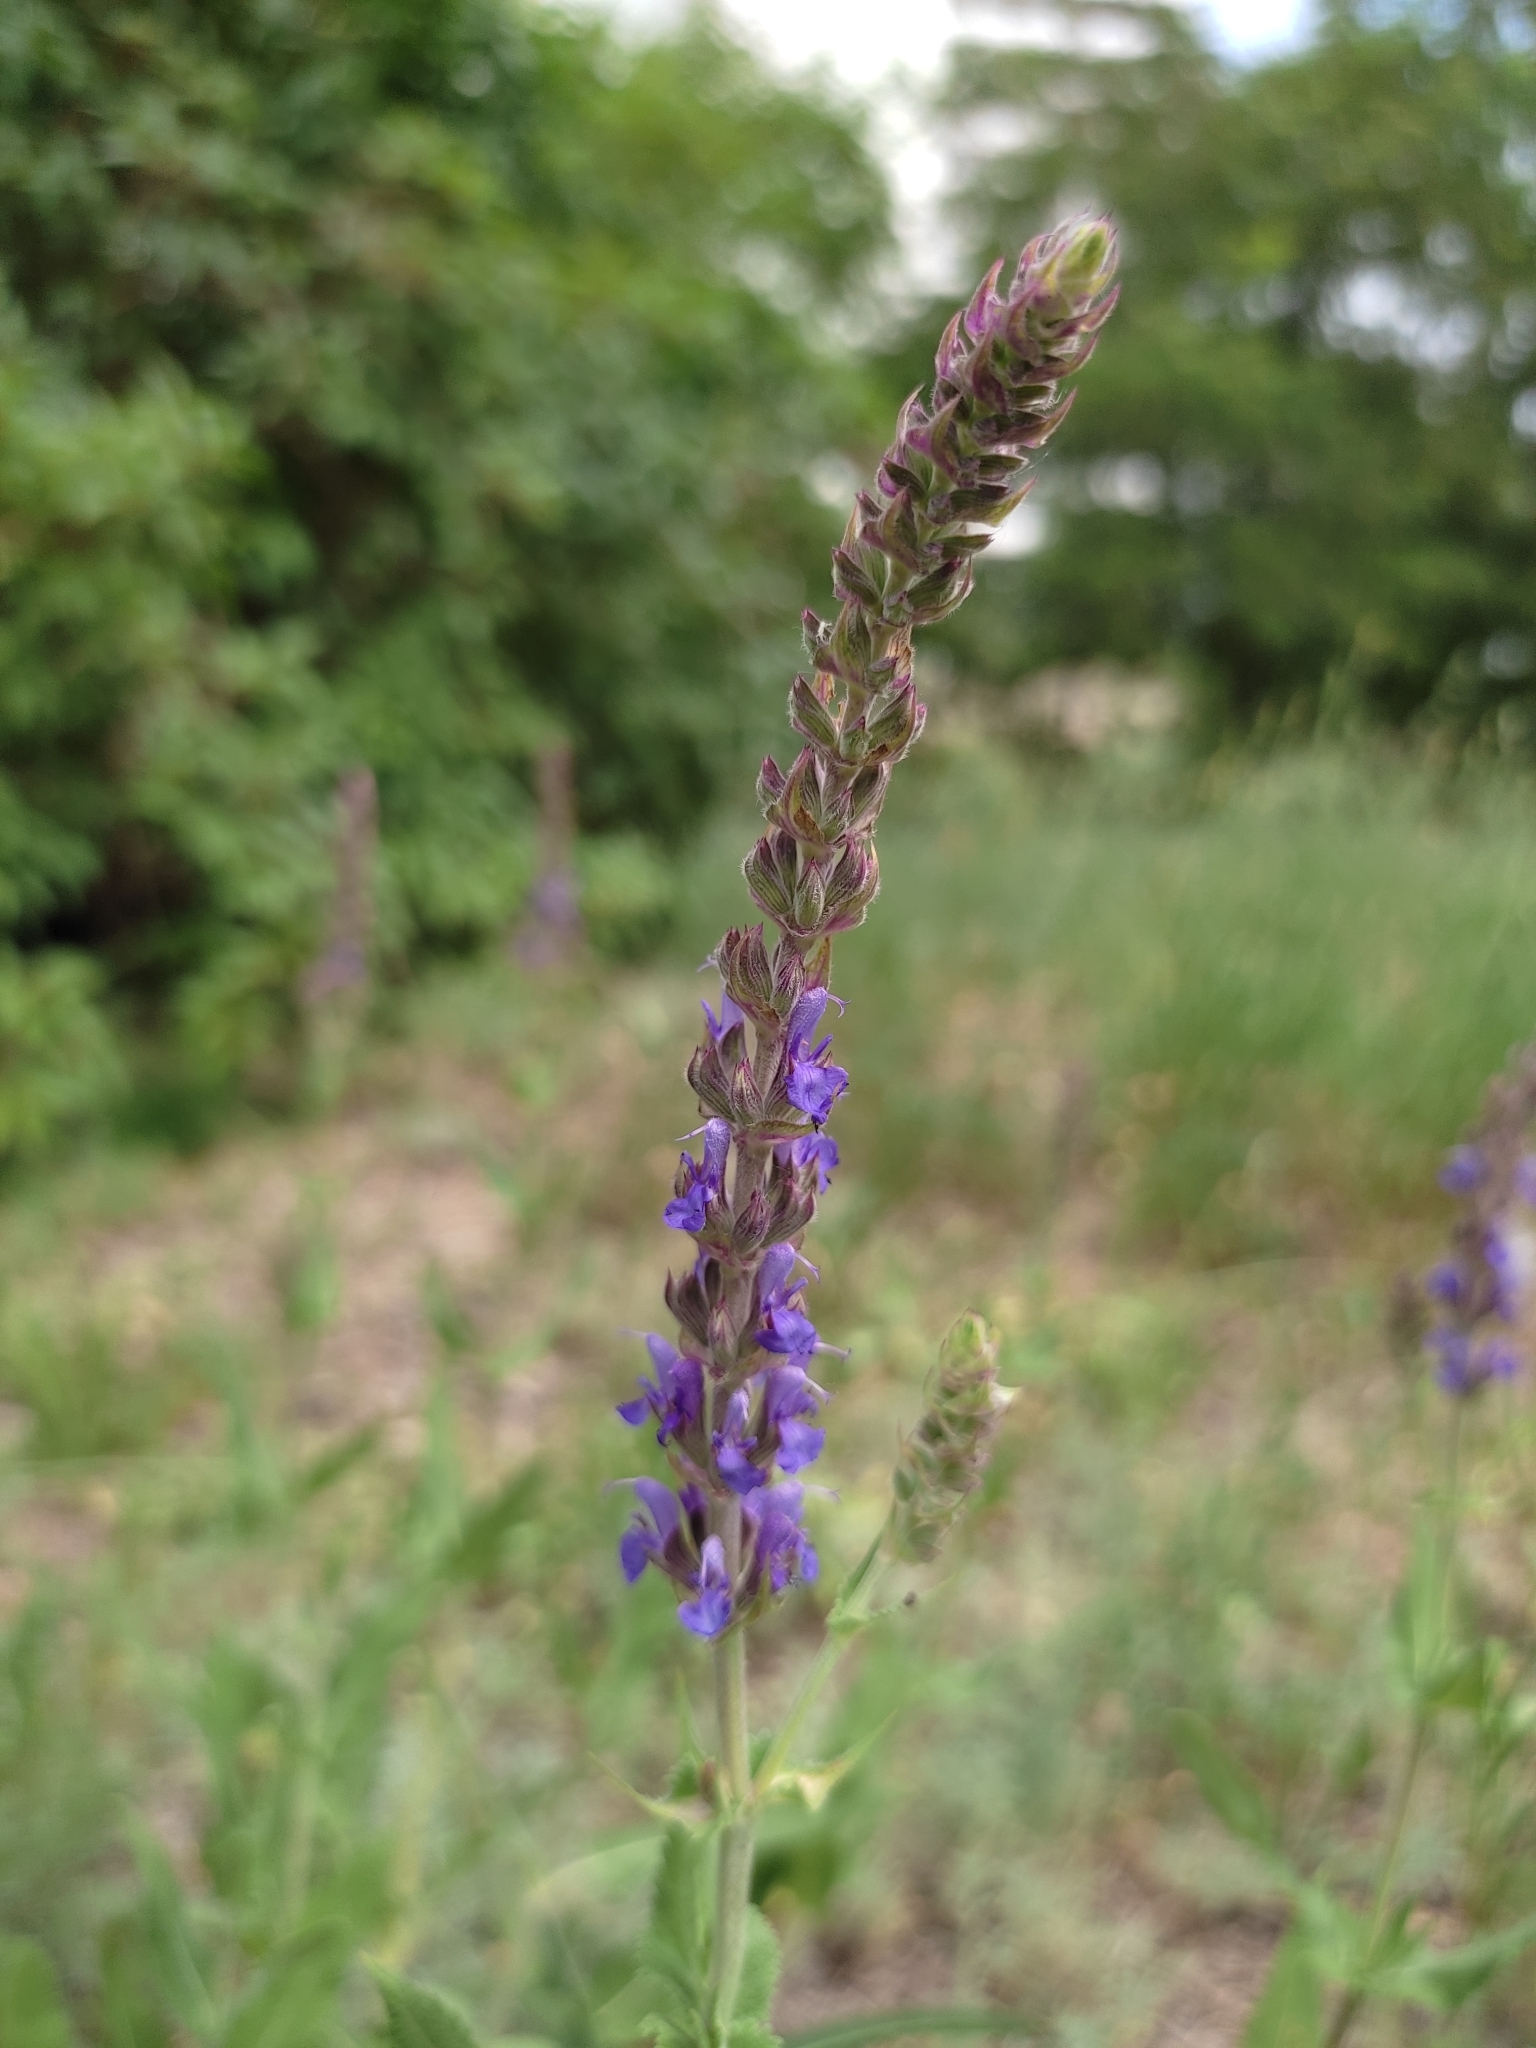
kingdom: Plantae
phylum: Tracheophyta
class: Magnoliopsida
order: Lamiales
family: Lamiaceae
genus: Salvia
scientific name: Salvia nemorosa
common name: Balkan clary
